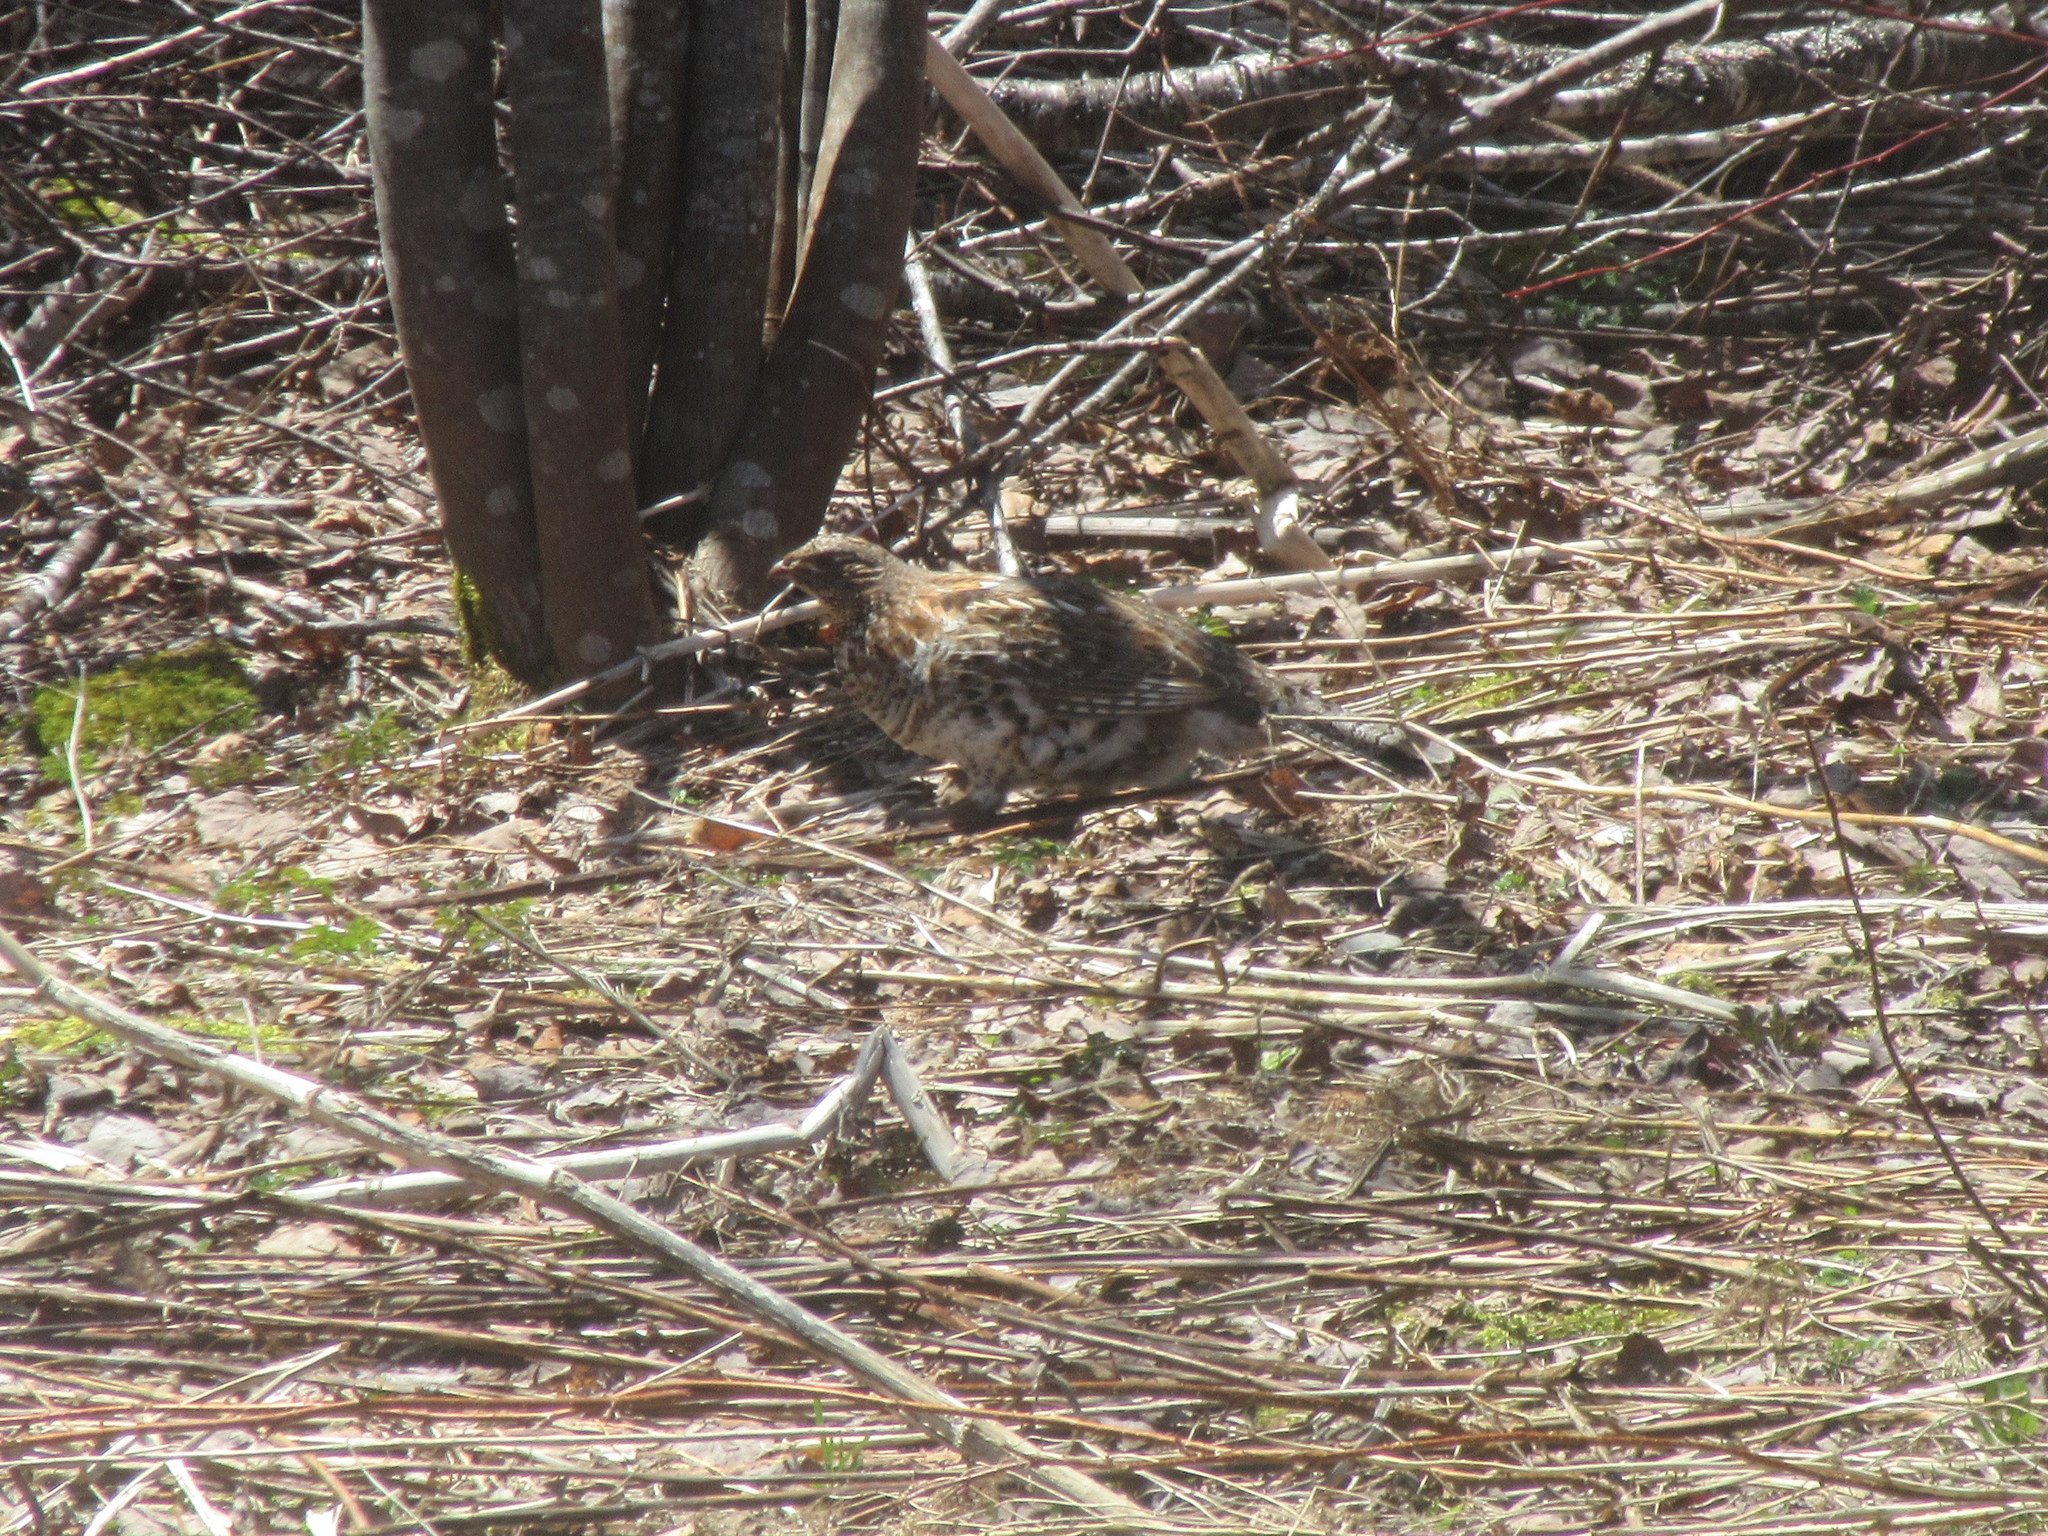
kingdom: Animalia
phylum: Chordata
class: Aves
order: Galliformes
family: Phasianidae
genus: Bonasa
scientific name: Bonasa umbellus
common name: Ruffed grouse
